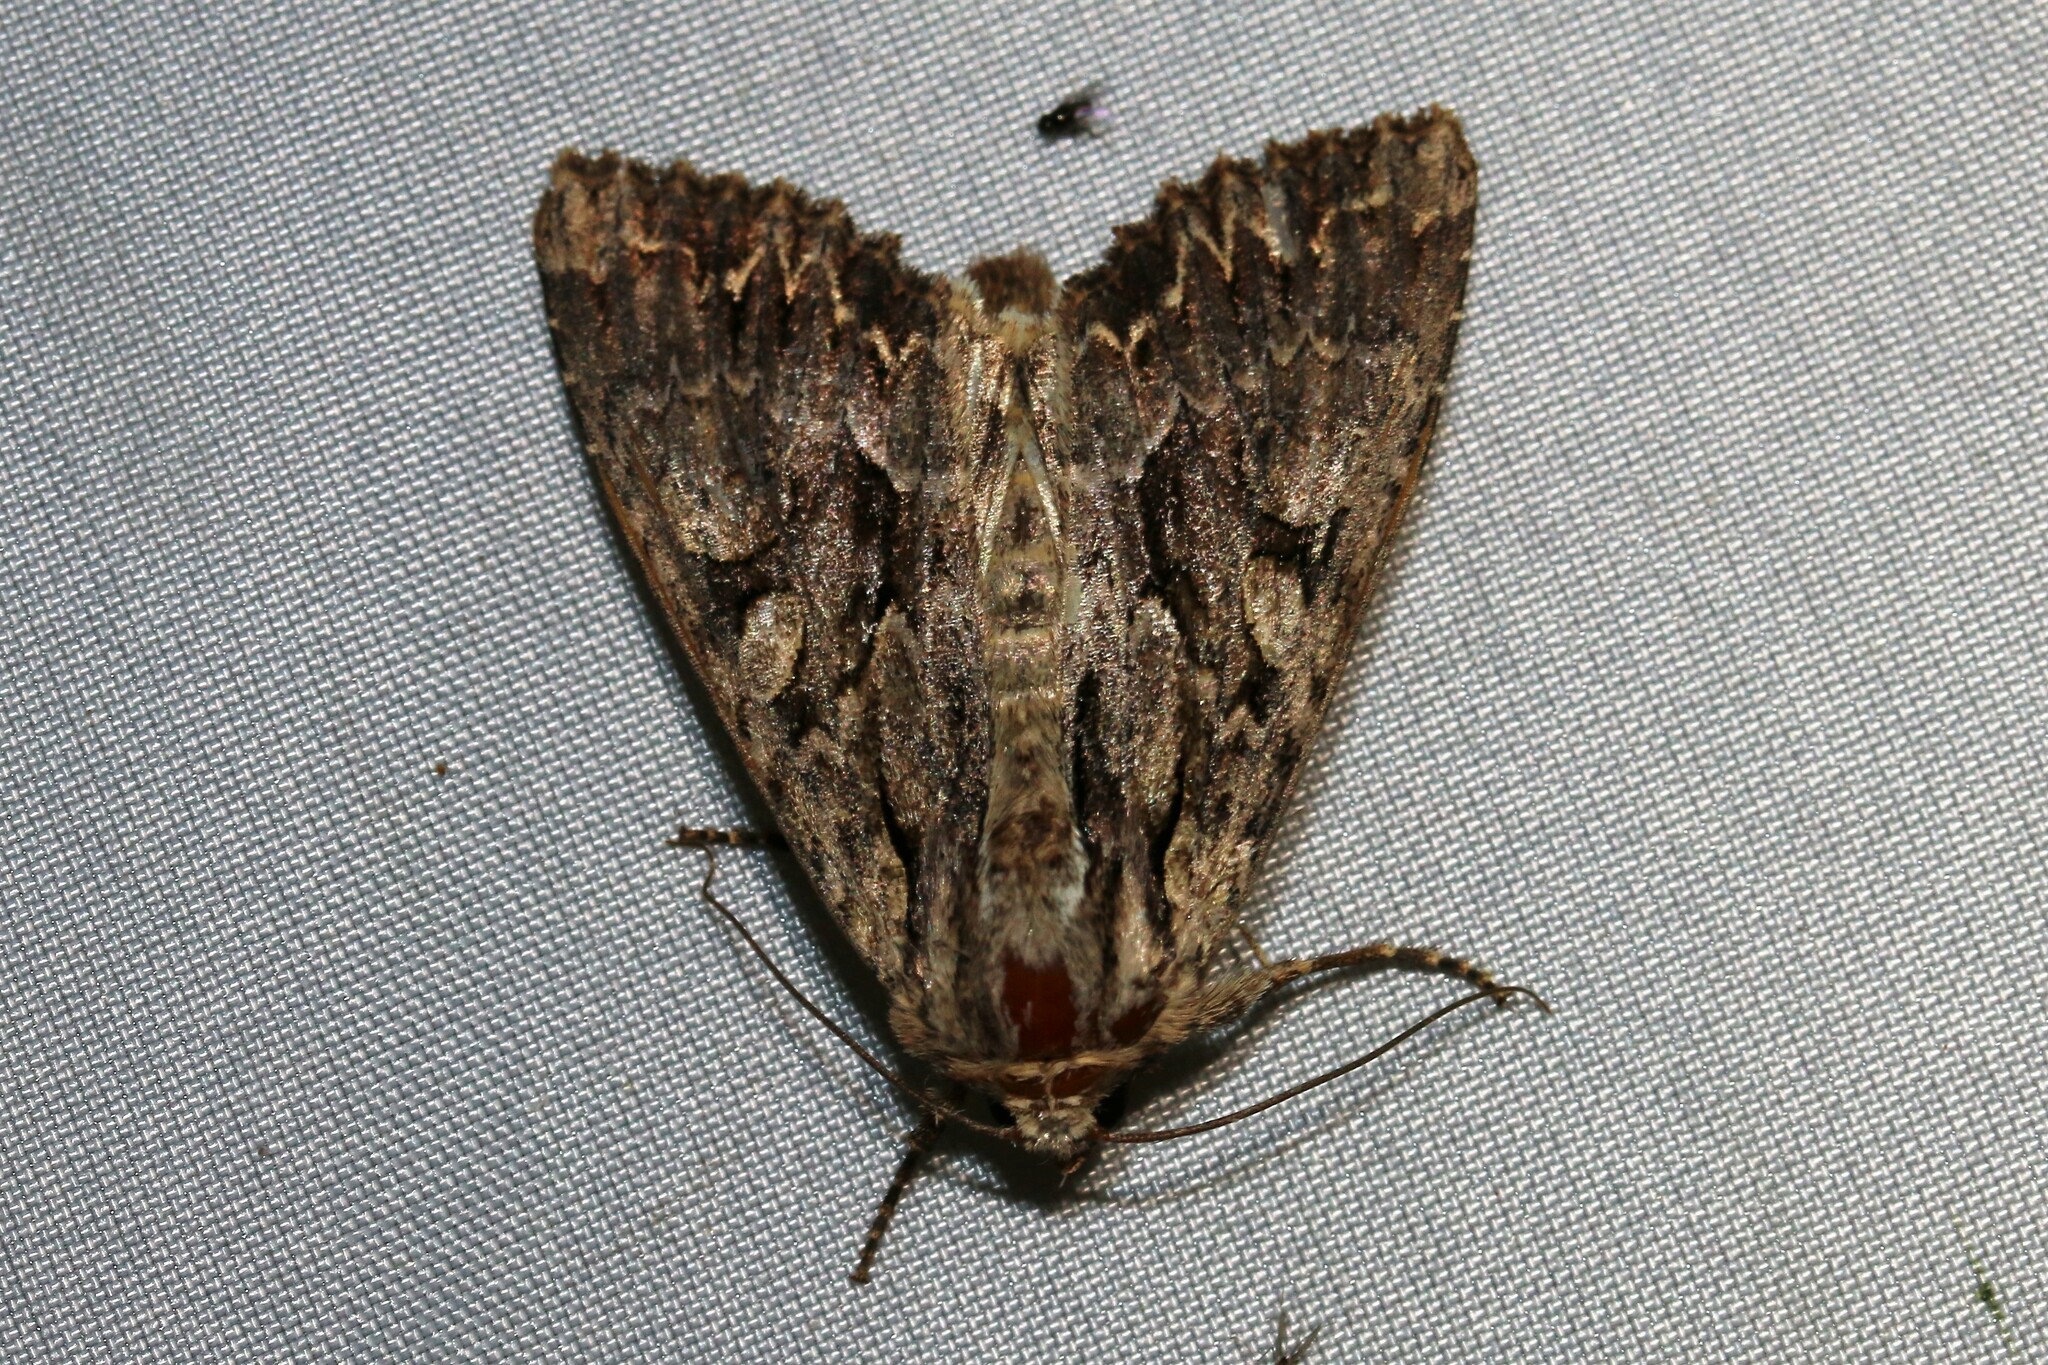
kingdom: Animalia
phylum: Arthropoda
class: Insecta
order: Lepidoptera
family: Noctuidae
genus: Apamea
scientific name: Apamea monoglypha
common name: Dark arches
